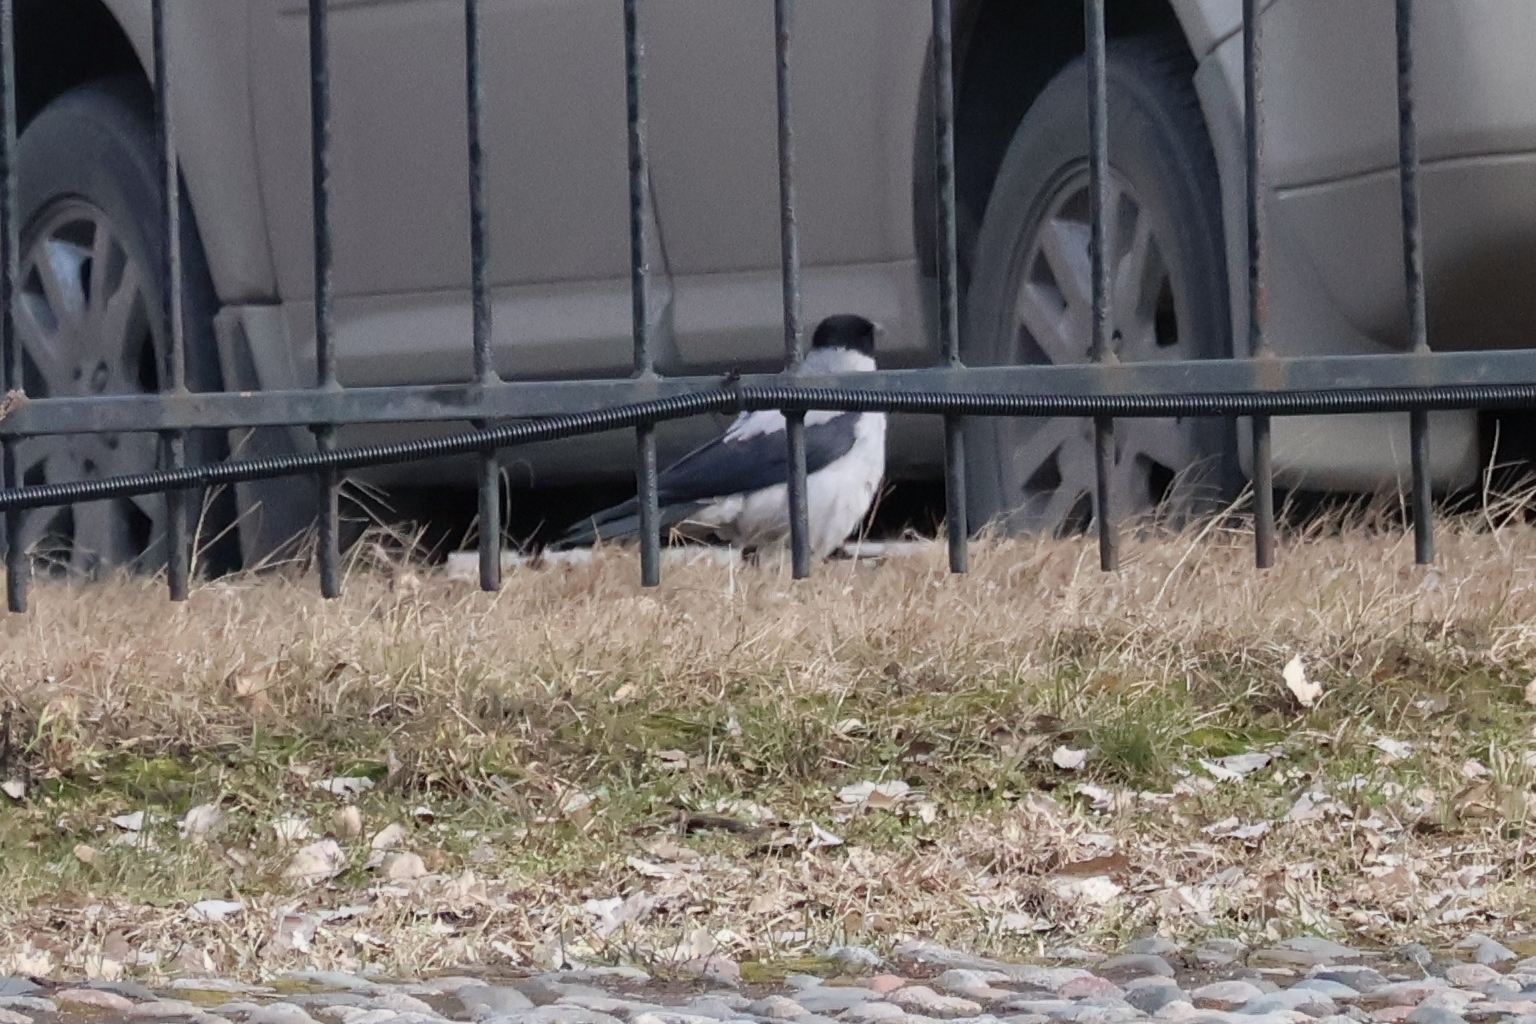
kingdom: Animalia
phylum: Chordata
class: Aves
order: Passeriformes
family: Corvidae
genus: Corvus
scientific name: Corvus cornix
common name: Hooded crow
